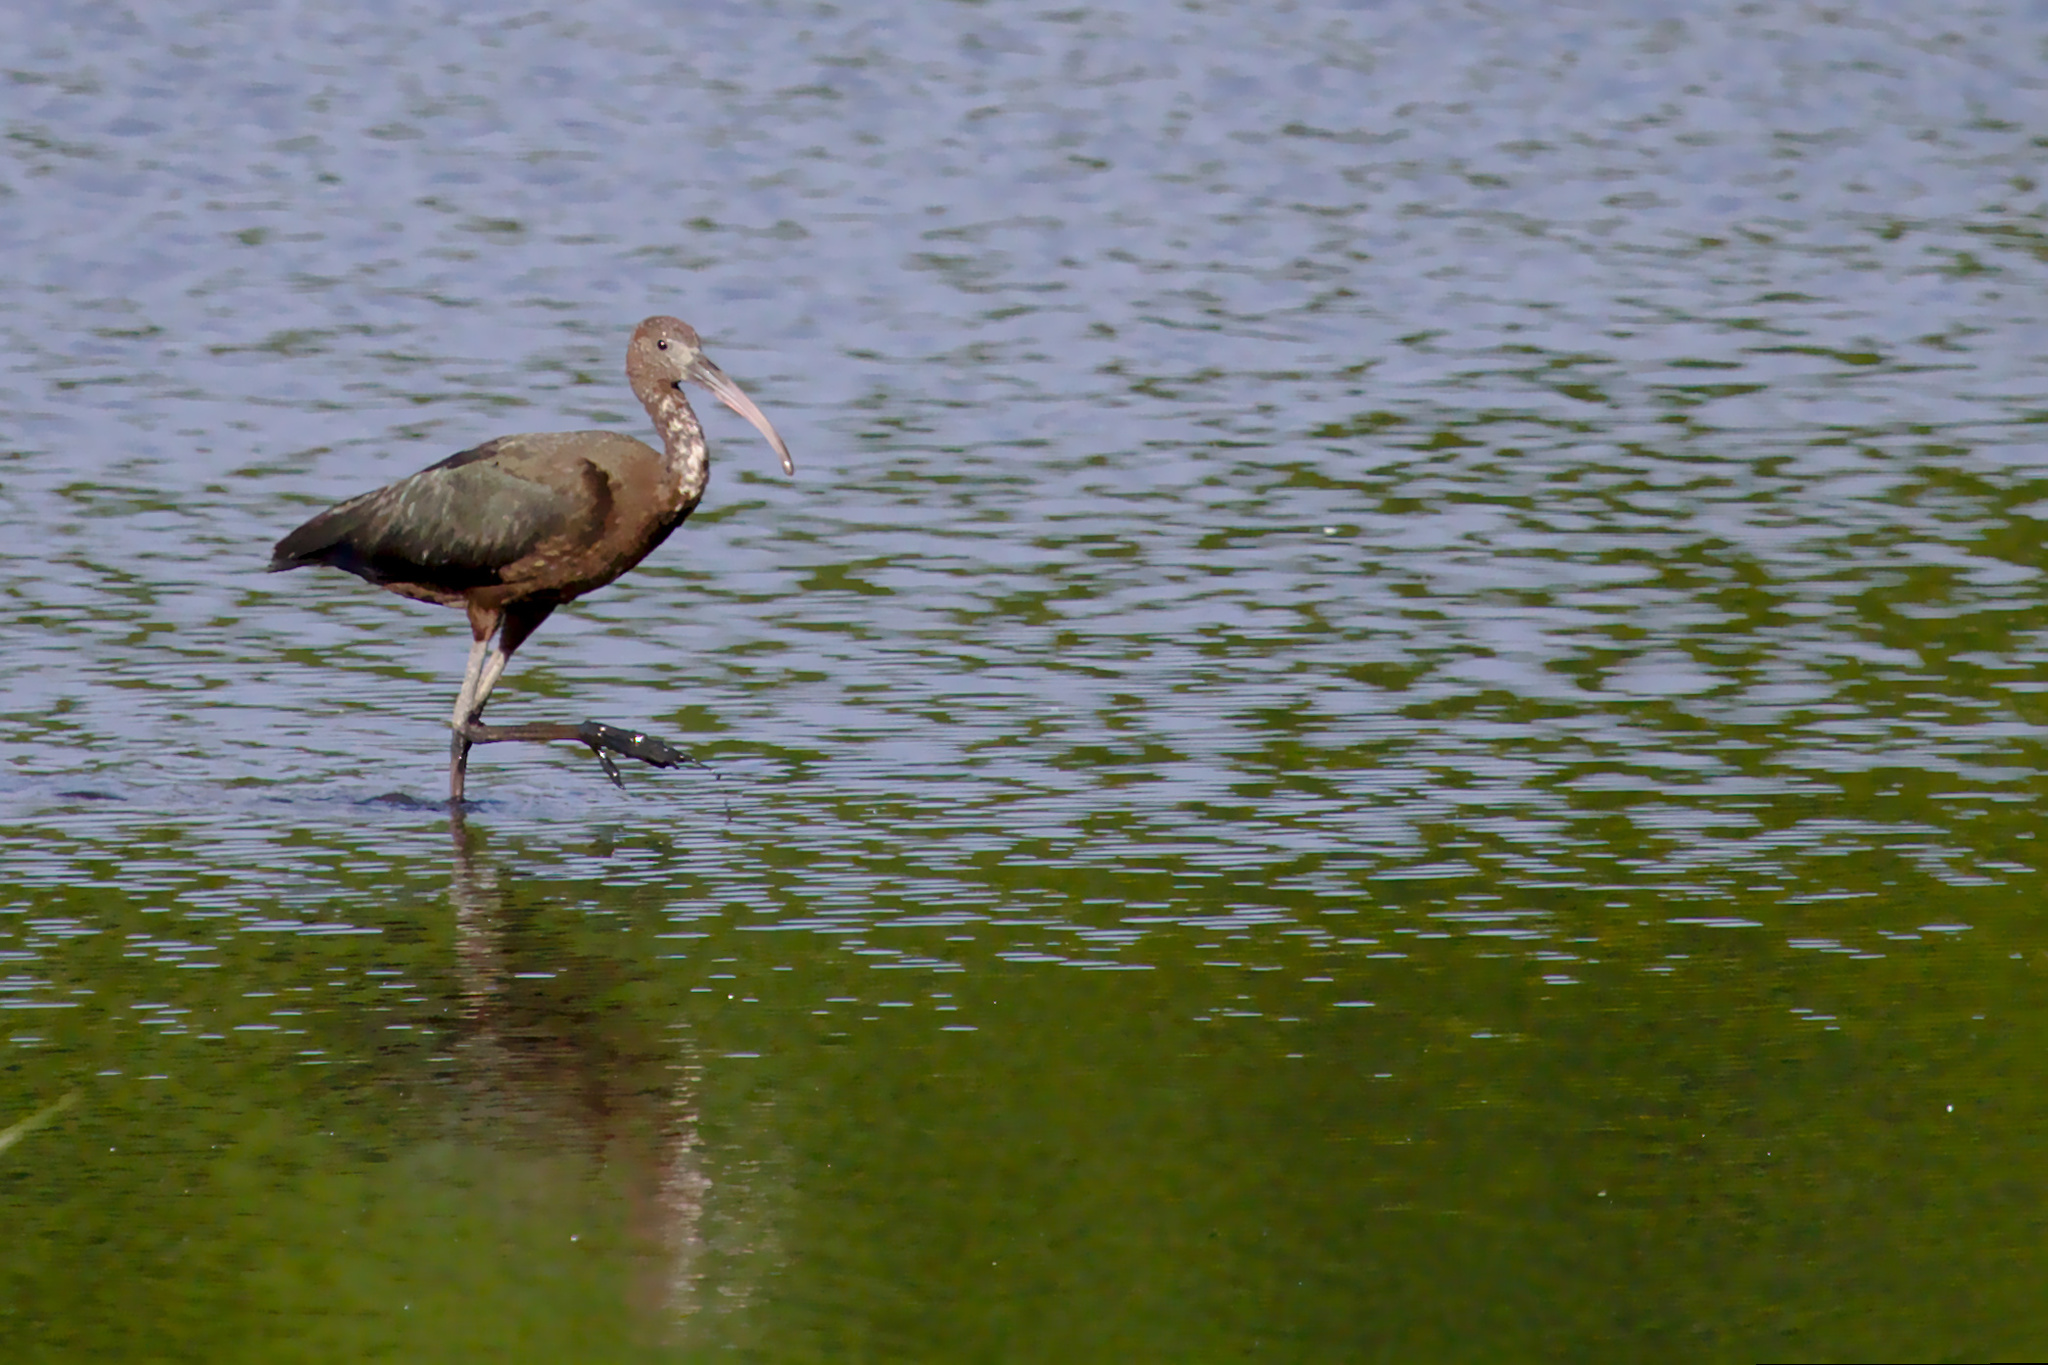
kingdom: Animalia
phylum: Chordata
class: Aves
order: Pelecaniformes
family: Threskiornithidae
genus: Plegadis
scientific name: Plegadis falcinellus
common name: Glossy ibis
